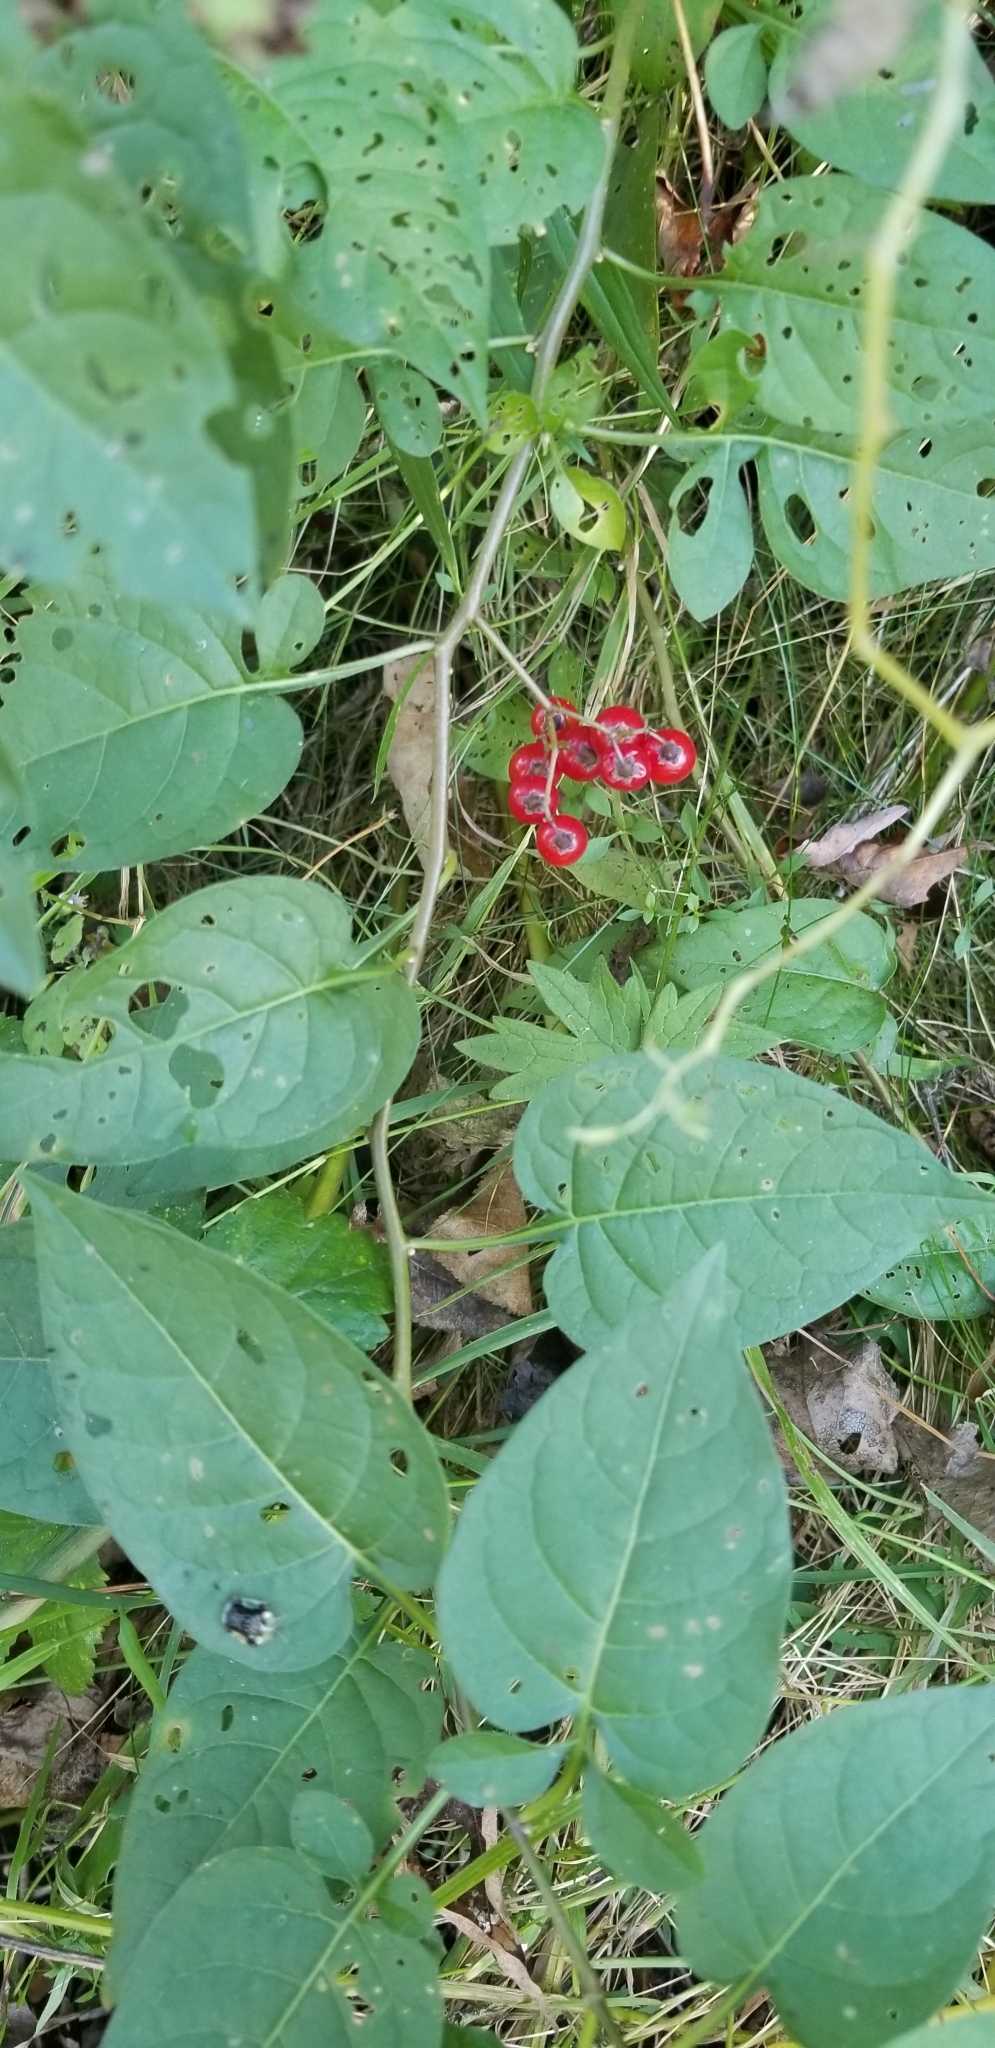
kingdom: Plantae
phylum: Tracheophyta
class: Magnoliopsida
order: Solanales
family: Solanaceae
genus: Solanum
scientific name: Solanum dulcamara
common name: Climbing nightshade
